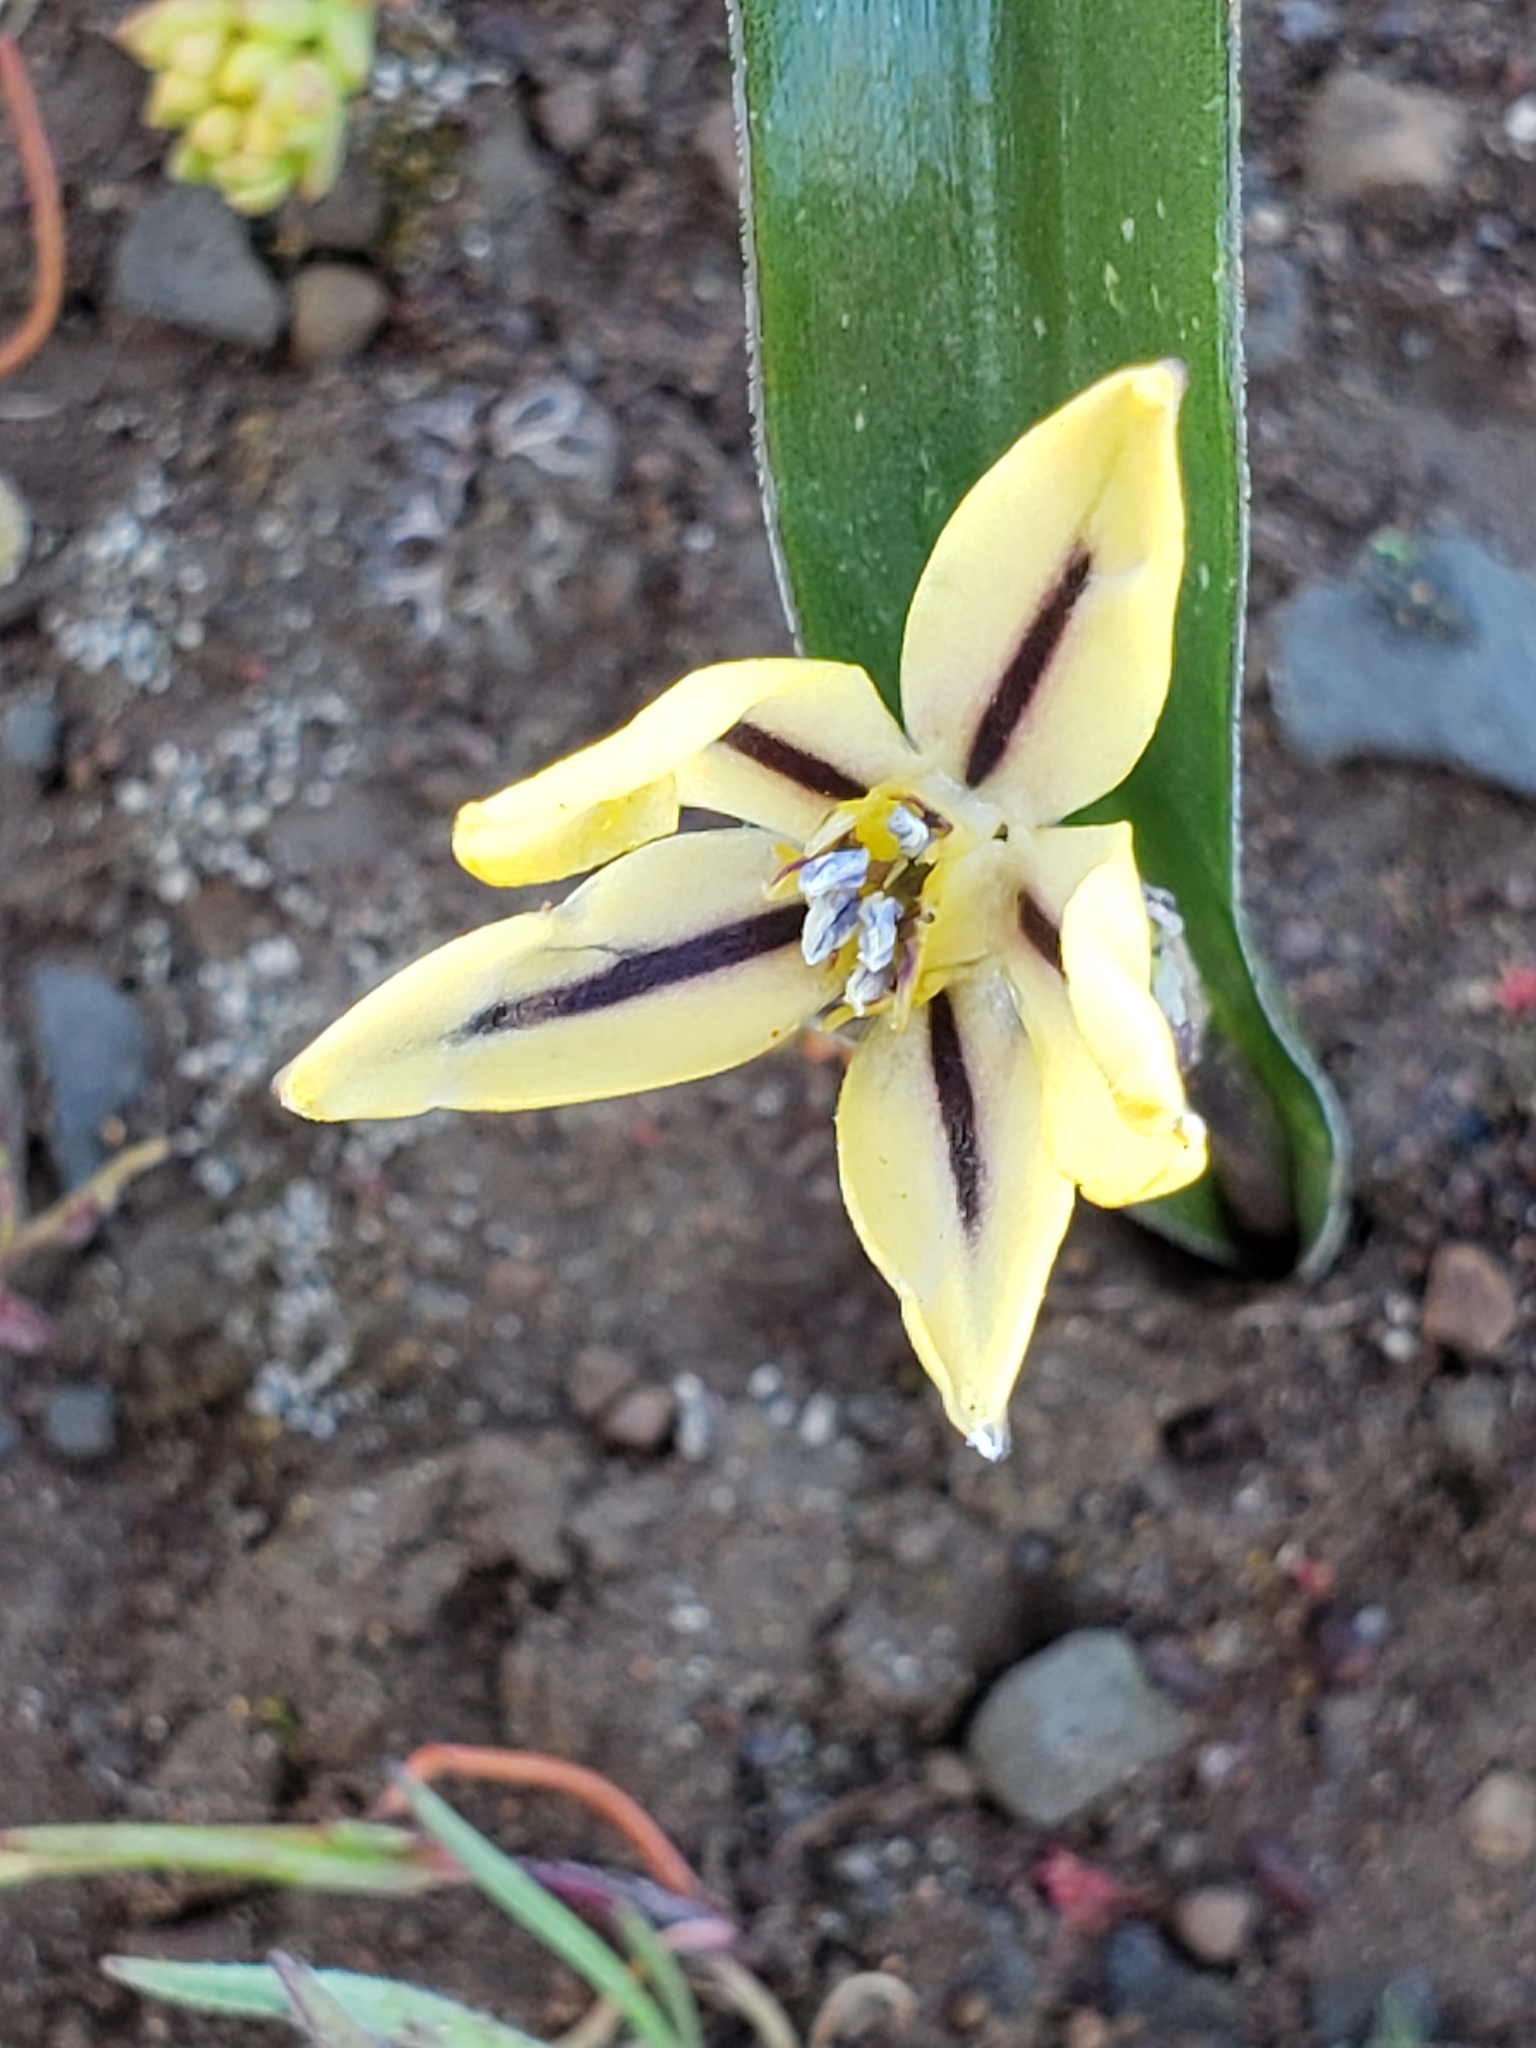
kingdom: Plantae
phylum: Tracheophyta
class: Liliopsida
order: Asparagales
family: Asparagaceae
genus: Triteleia
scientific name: Triteleia ixioides
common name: Yellow-brodiaea
